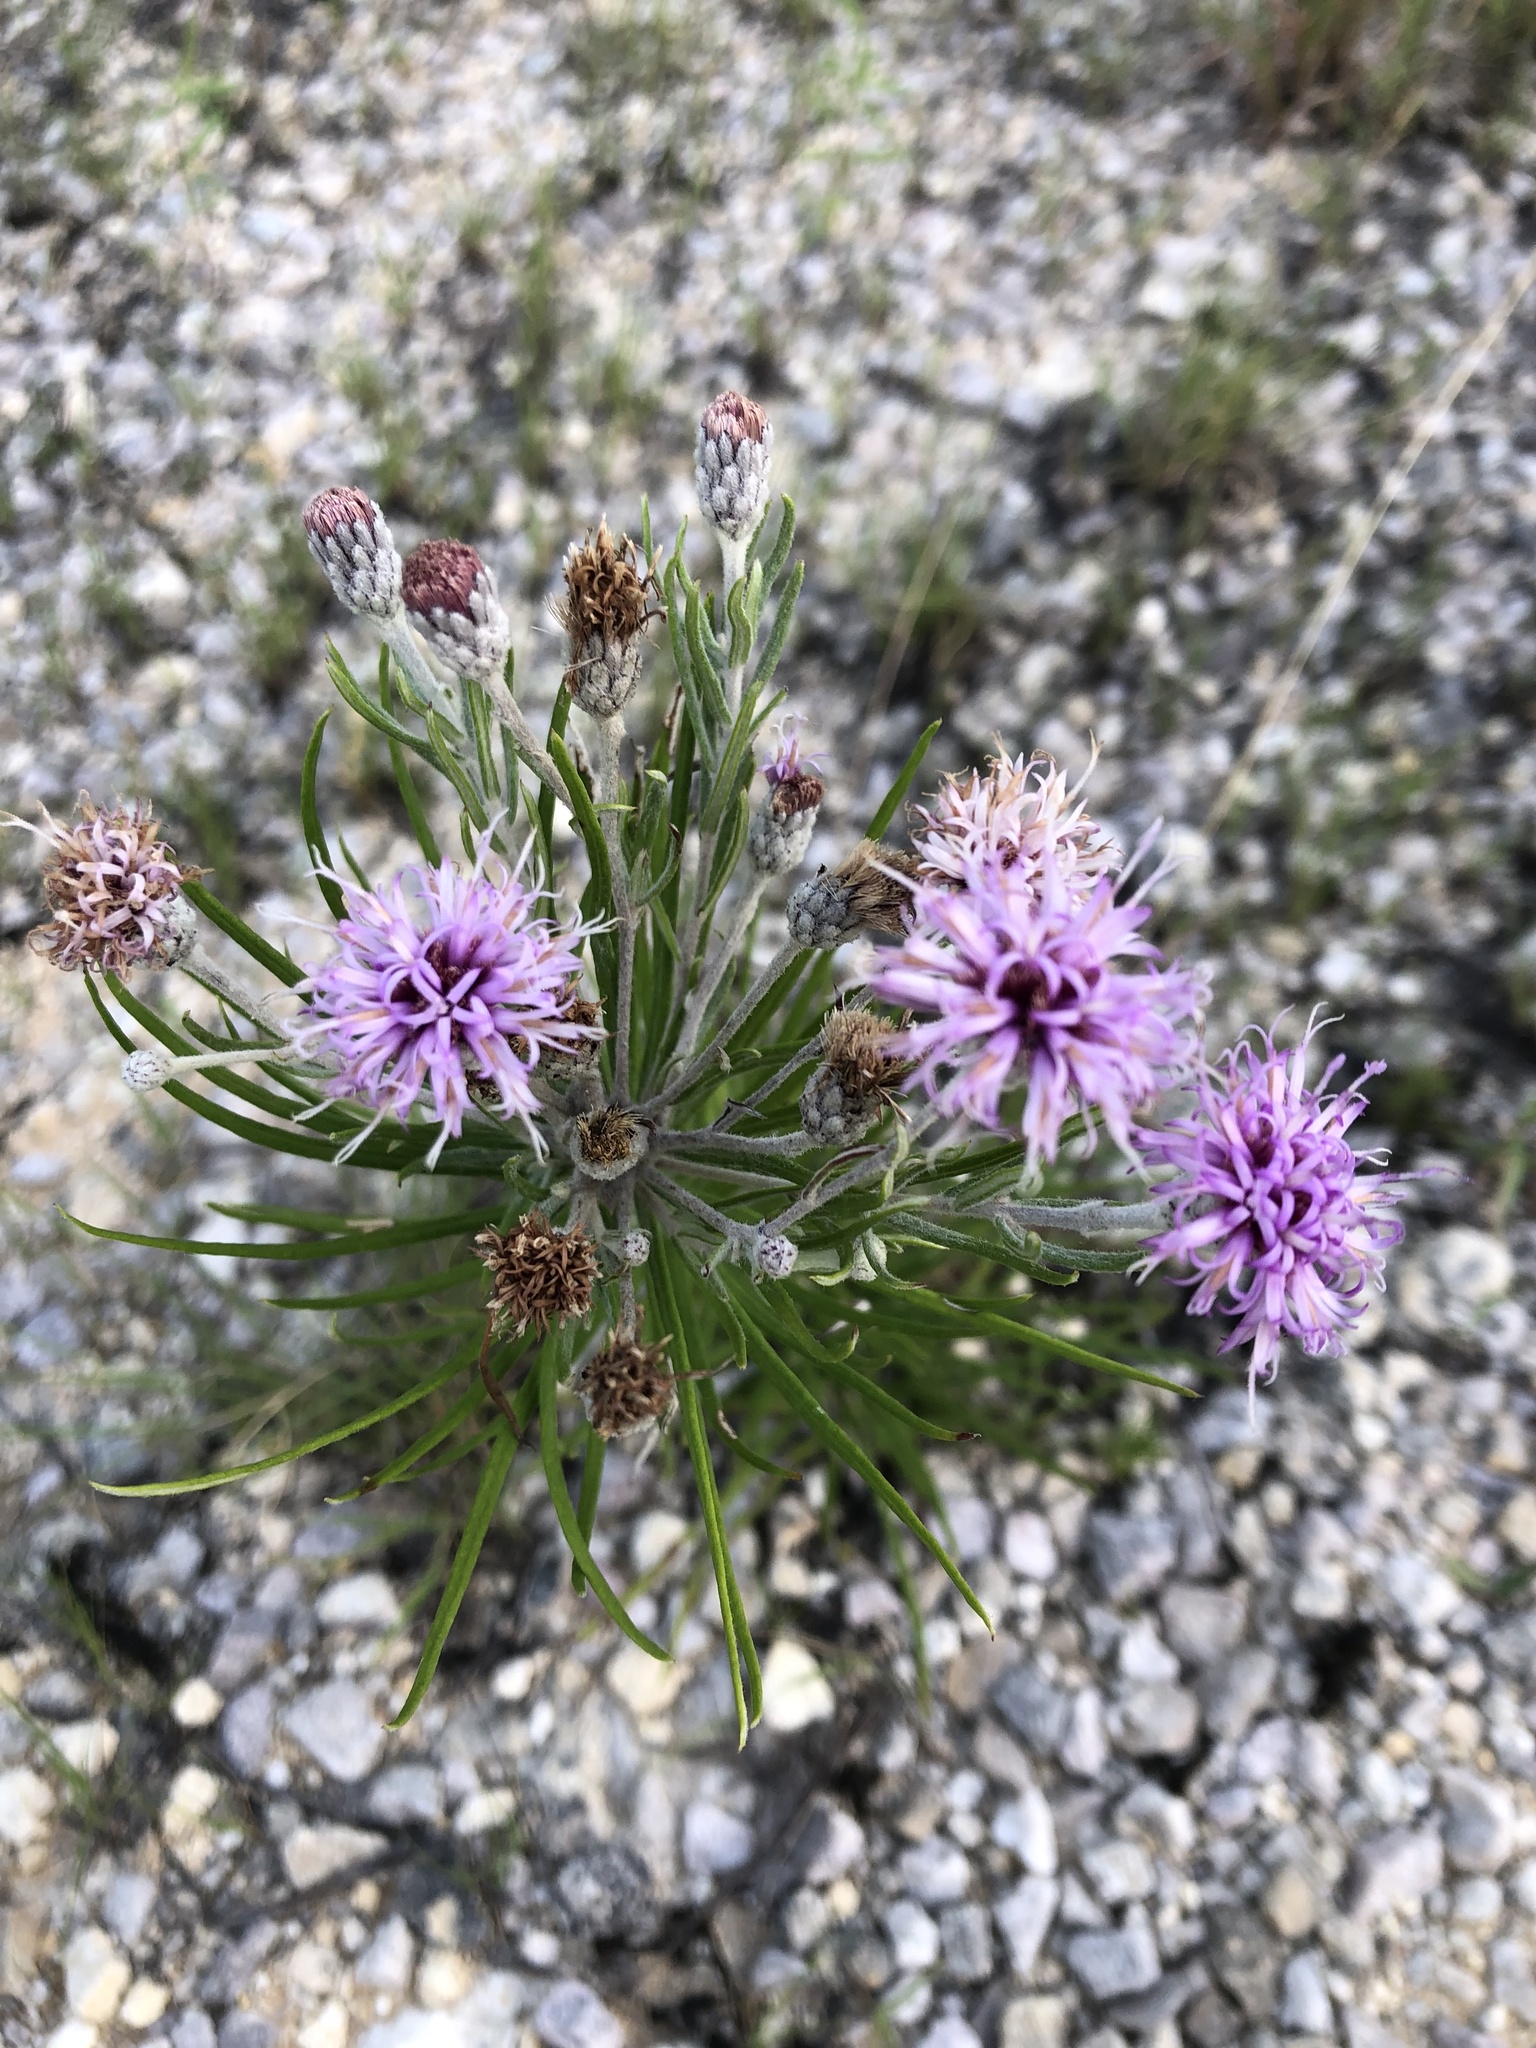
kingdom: Plantae
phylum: Tracheophyta
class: Magnoliopsida
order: Asterales
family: Asteraceae
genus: Vernonia
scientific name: Vernonia lindheimeri
